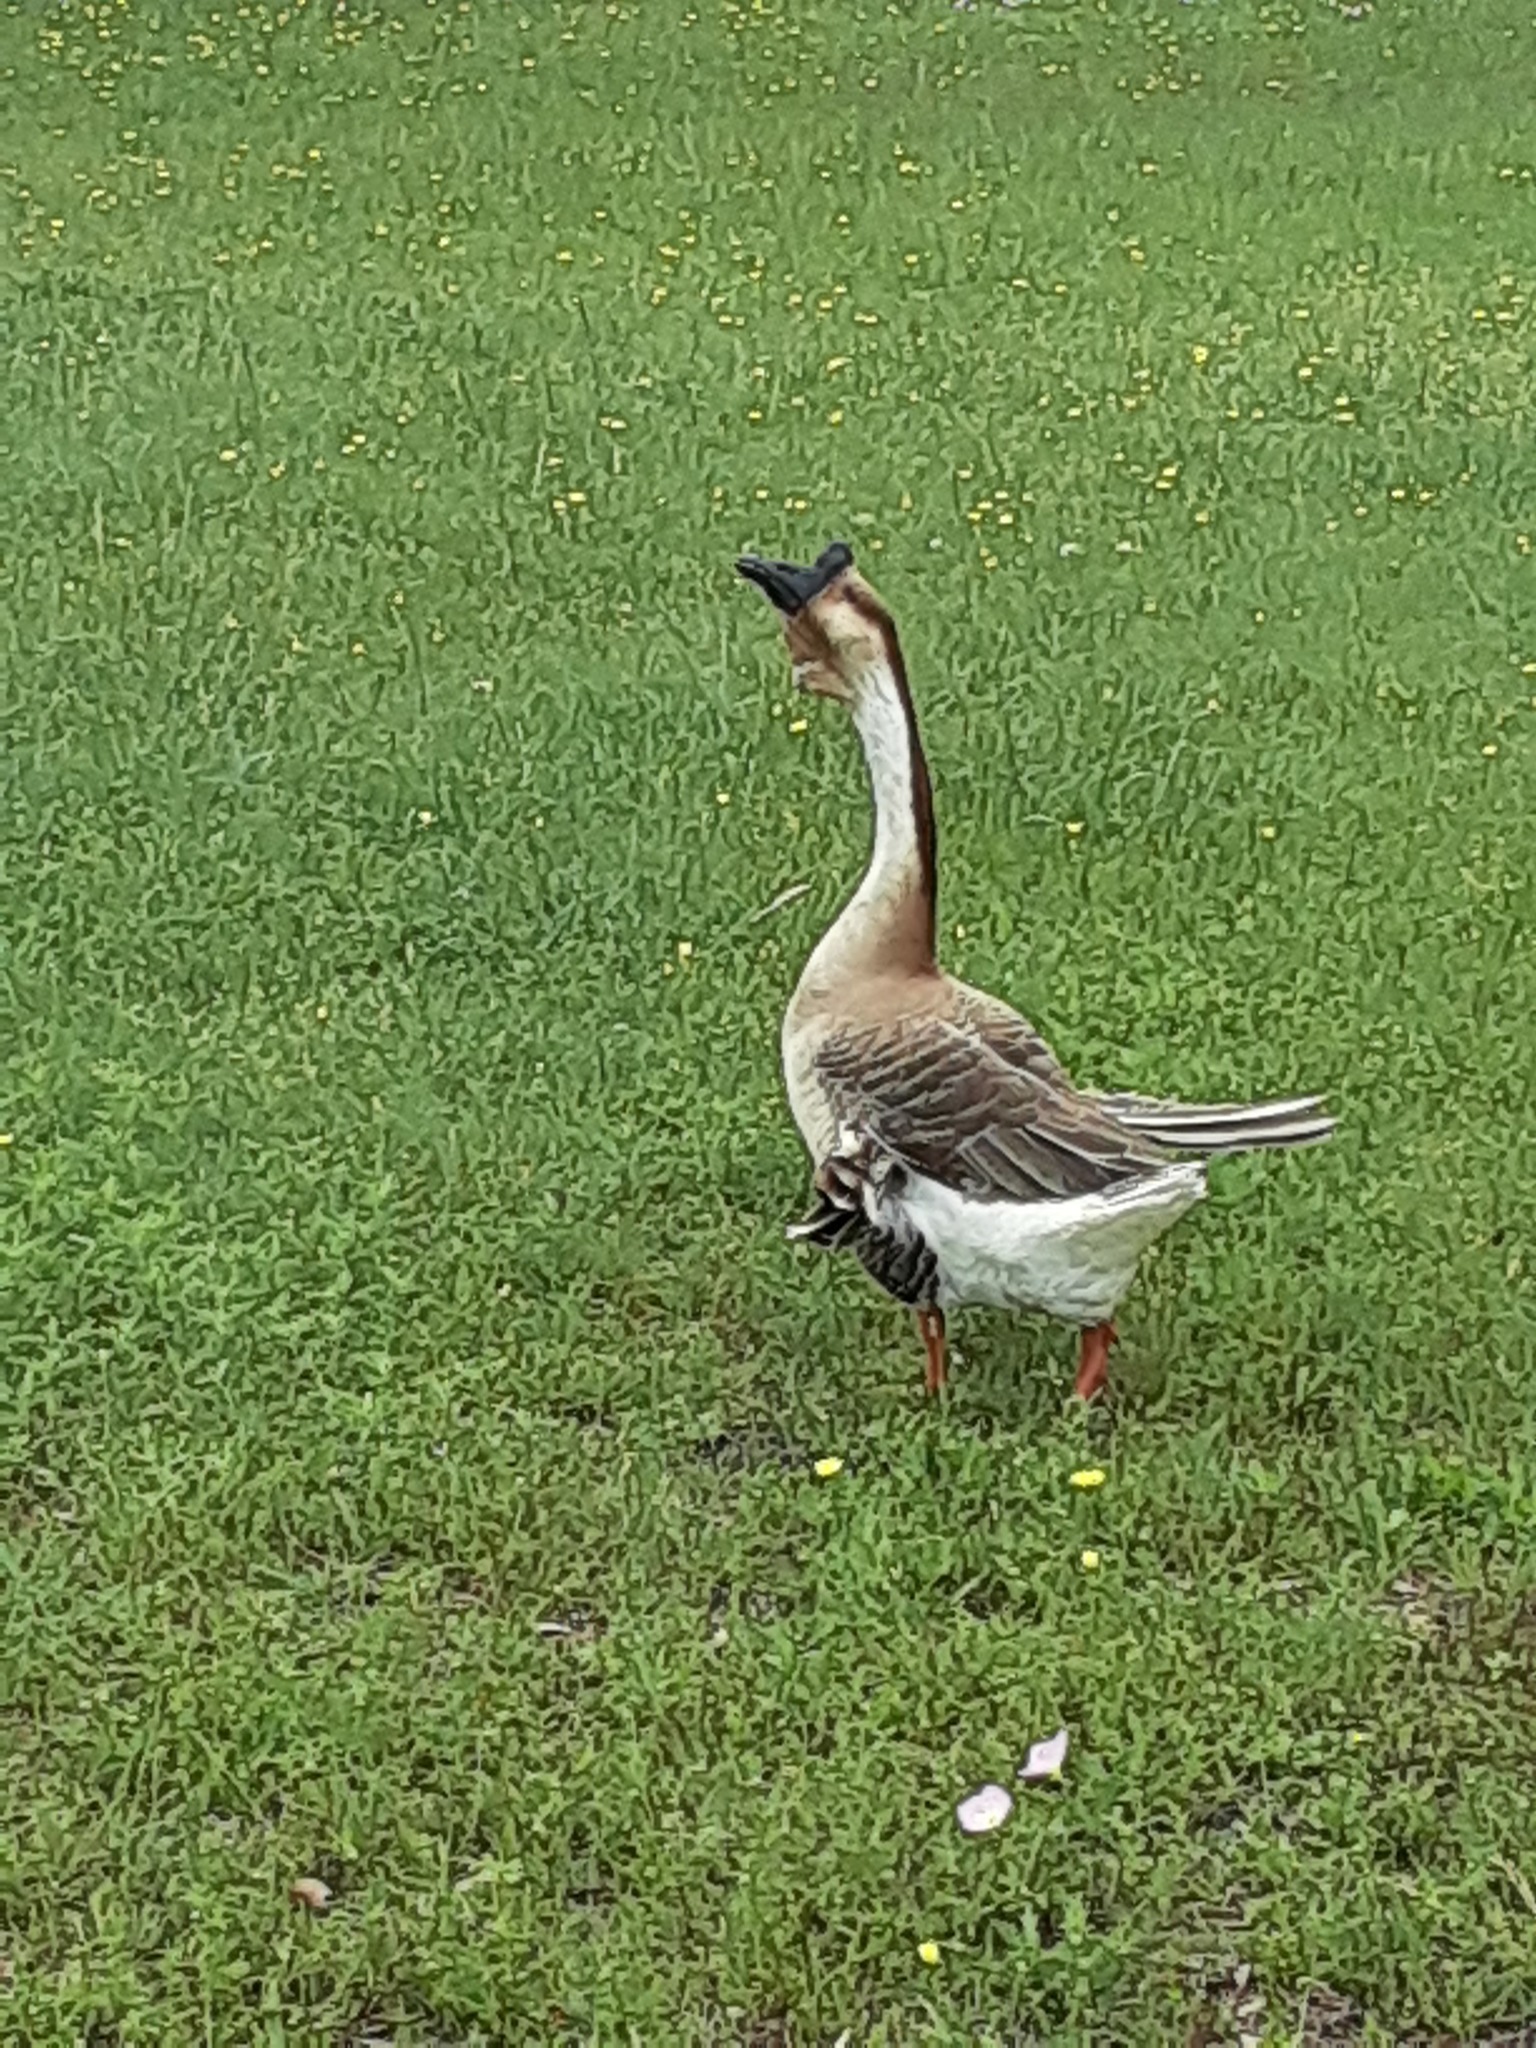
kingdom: Animalia
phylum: Chordata
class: Aves
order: Anseriformes
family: Anatidae
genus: Anser
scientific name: Anser cygnoides
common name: Swan goose
